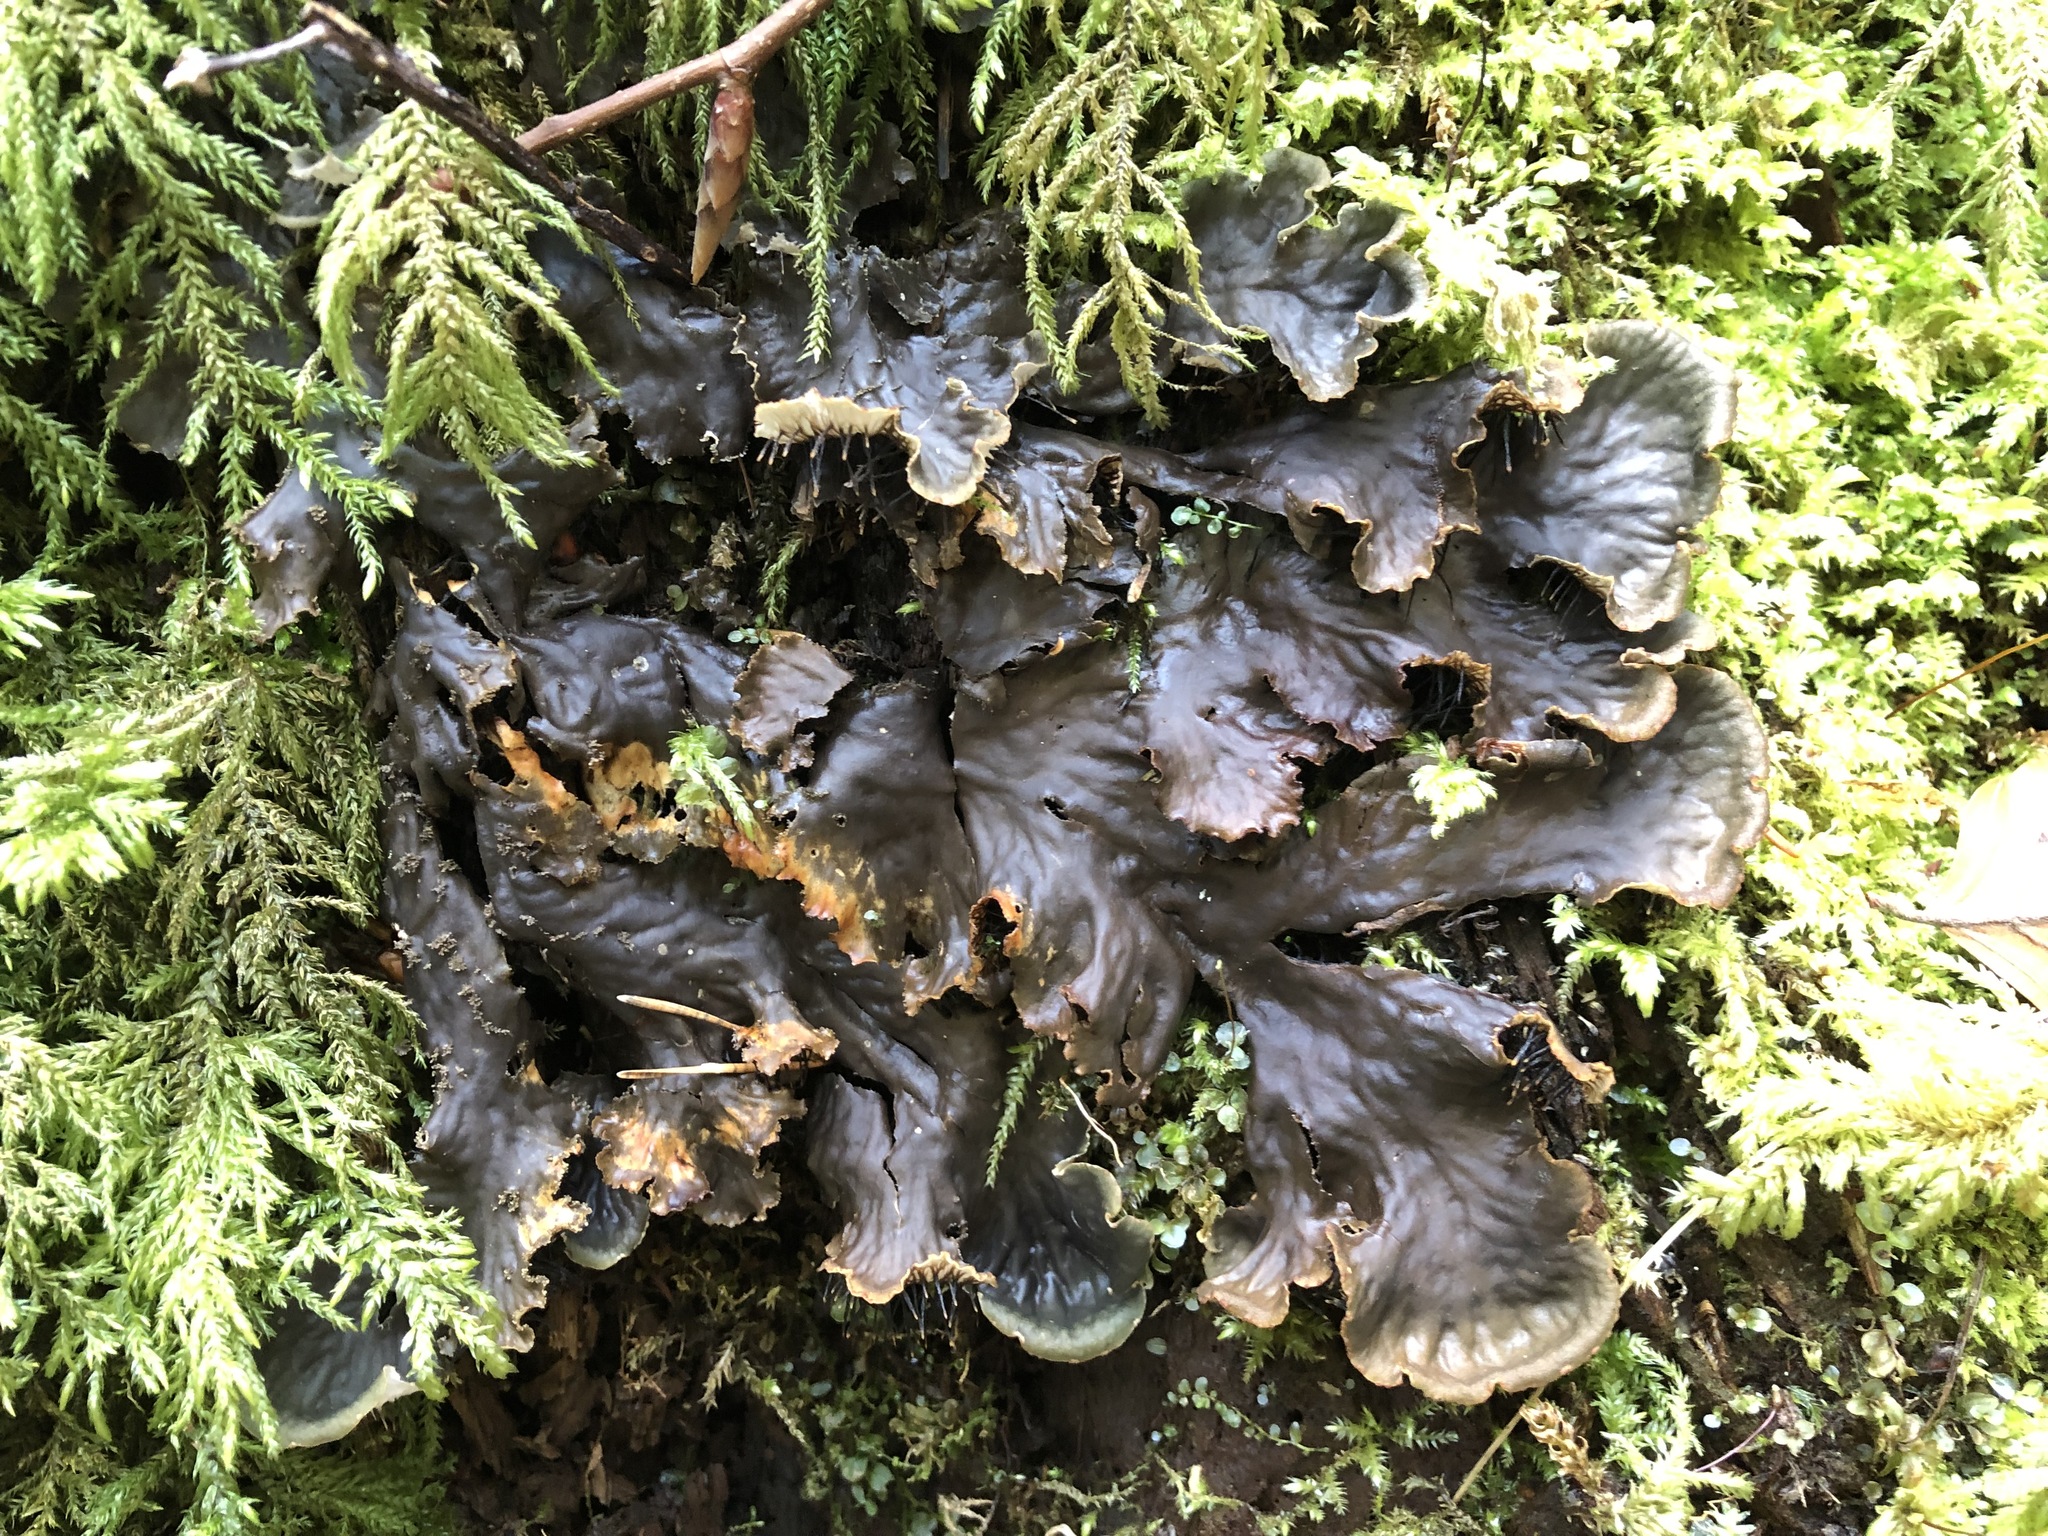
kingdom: Fungi
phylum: Ascomycota
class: Lecanoromycetes
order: Peltigerales
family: Peltigeraceae
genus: Peltigera
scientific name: Peltigera praetextata
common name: Scaly dog-lichen
